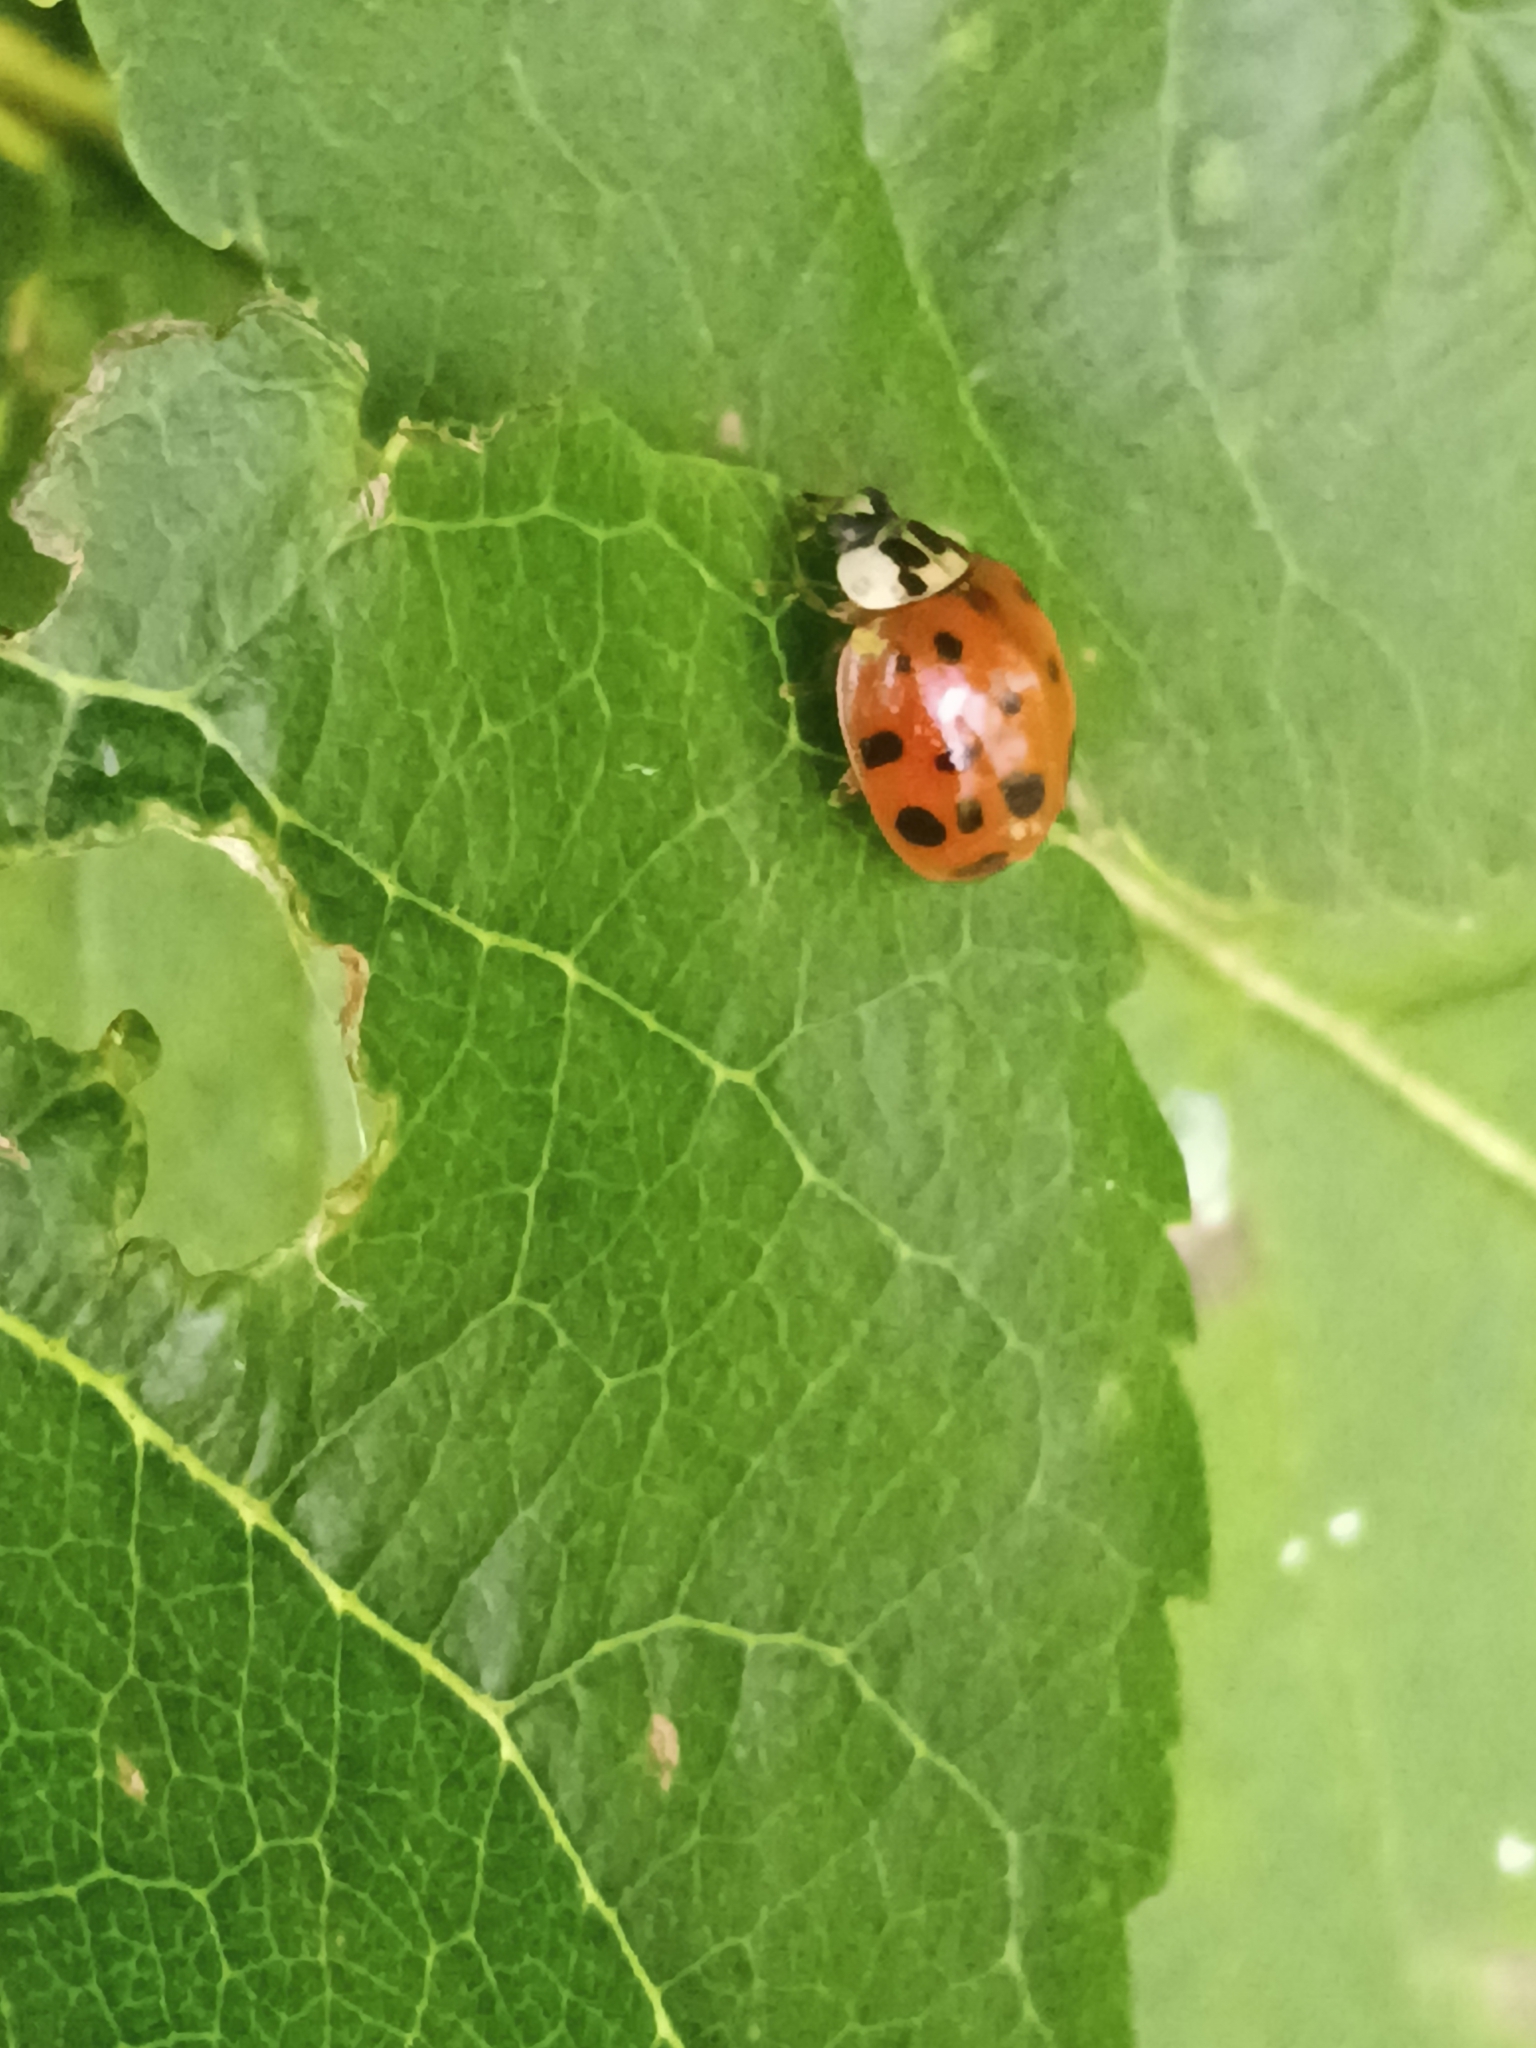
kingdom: Animalia
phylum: Arthropoda
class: Insecta
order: Coleoptera
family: Coccinellidae
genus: Harmonia
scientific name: Harmonia axyridis
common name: Harlequin ladybird
